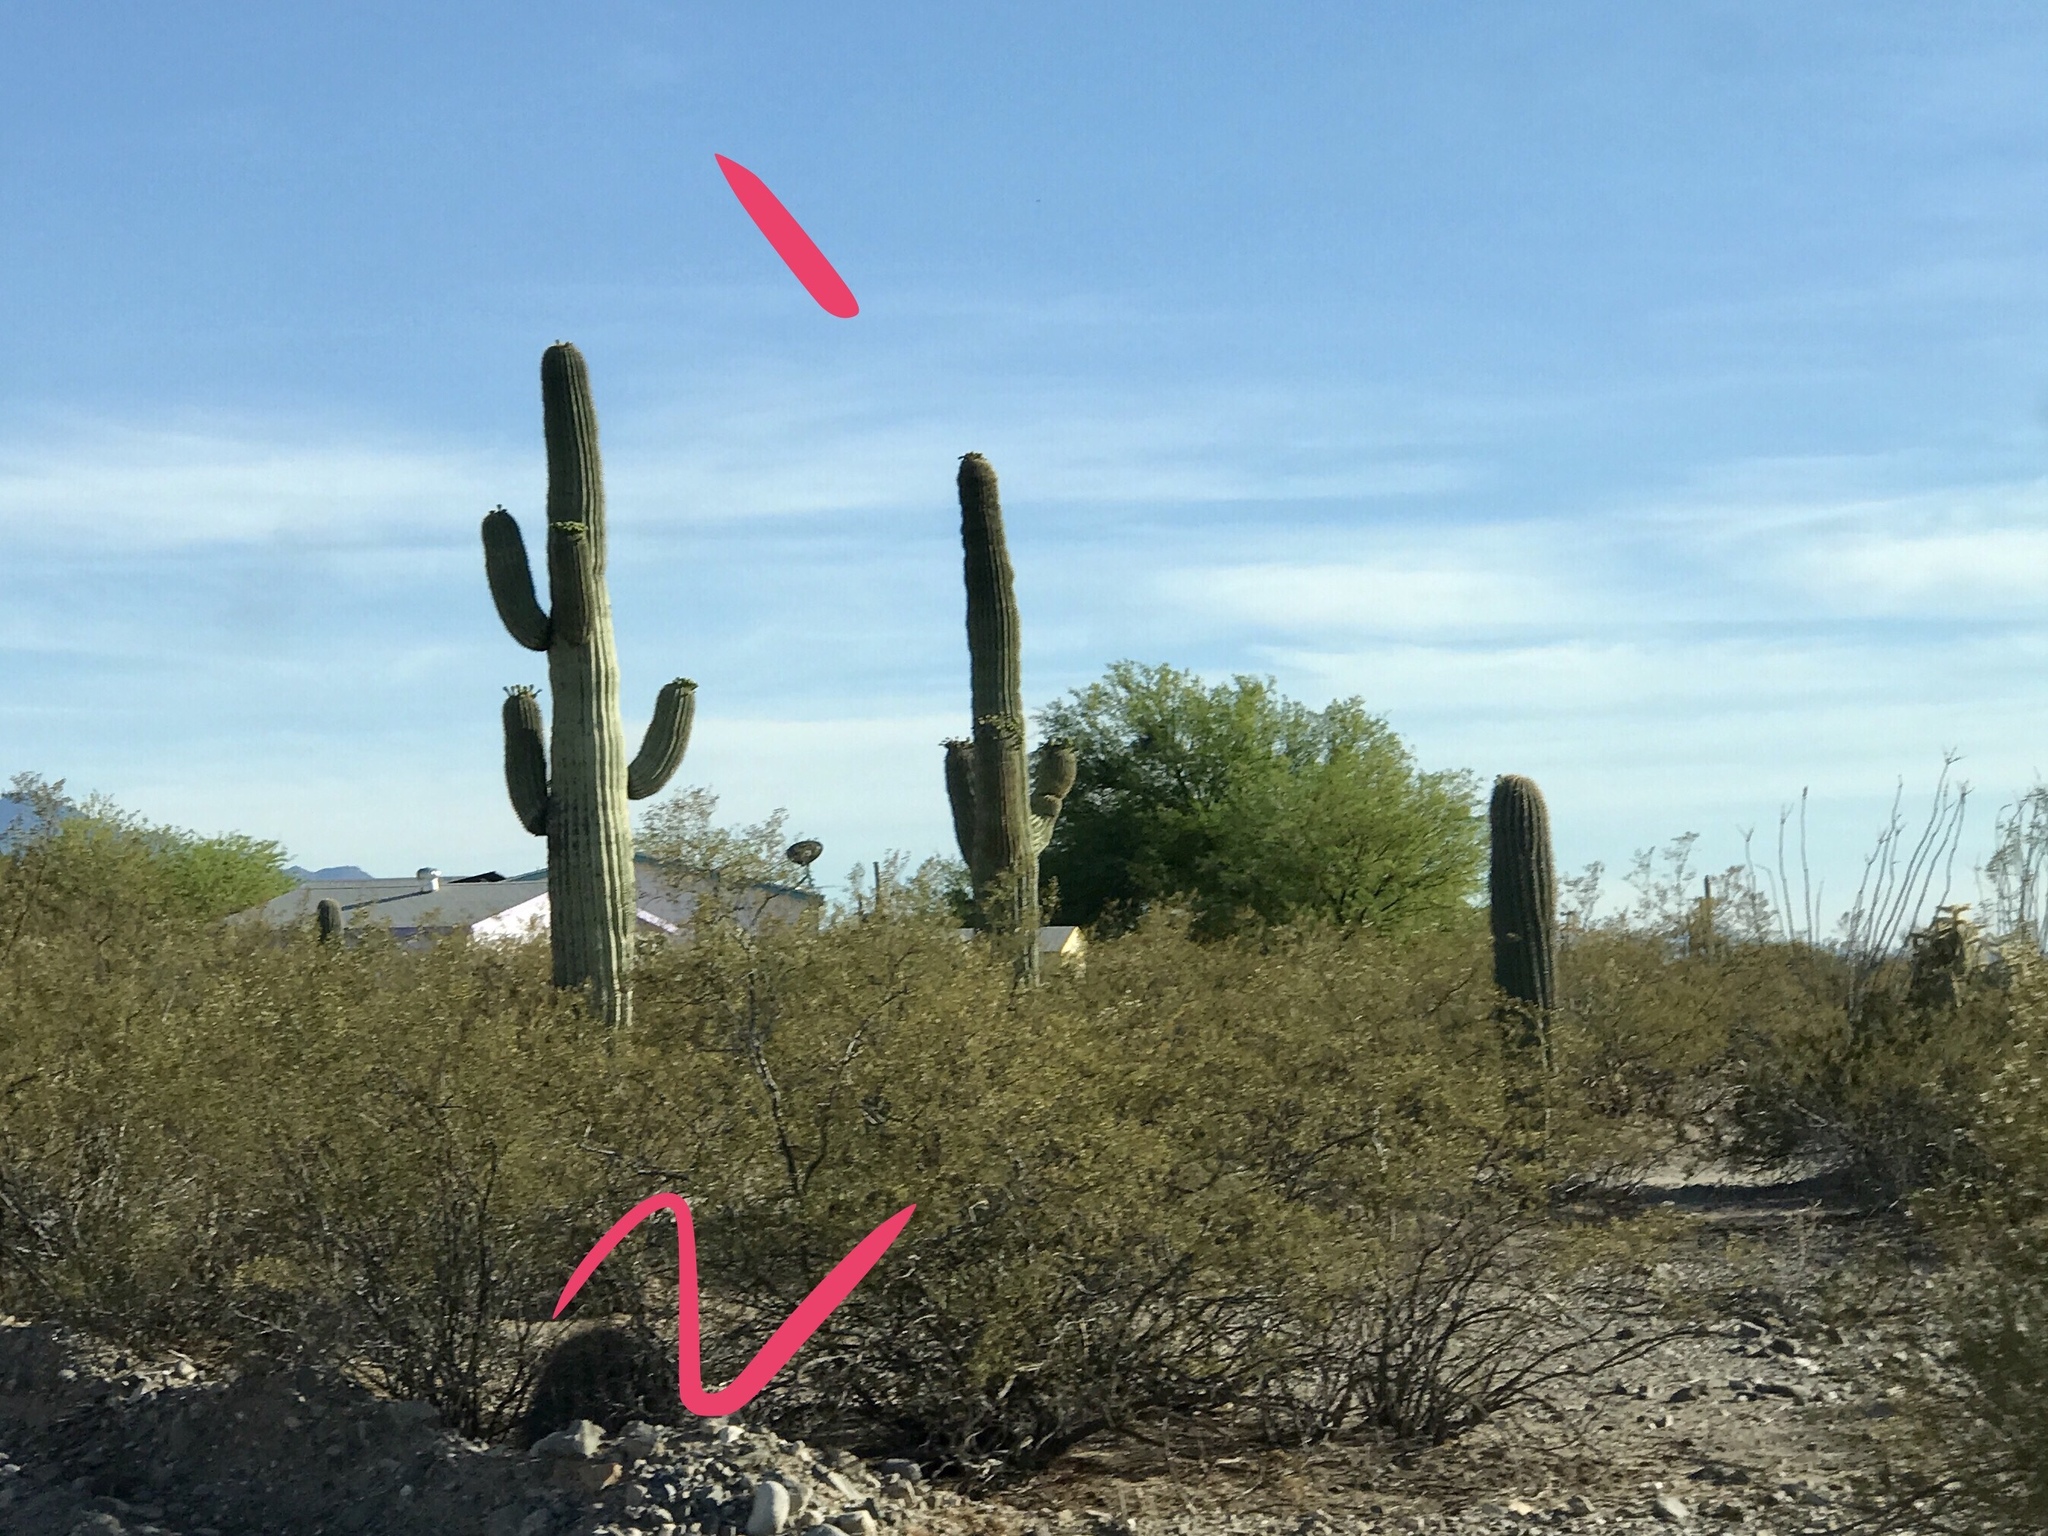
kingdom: Plantae
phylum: Tracheophyta
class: Magnoliopsida
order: Zygophyllales
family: Zygophyllaceae
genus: Larrea
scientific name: Larrea tridentata
